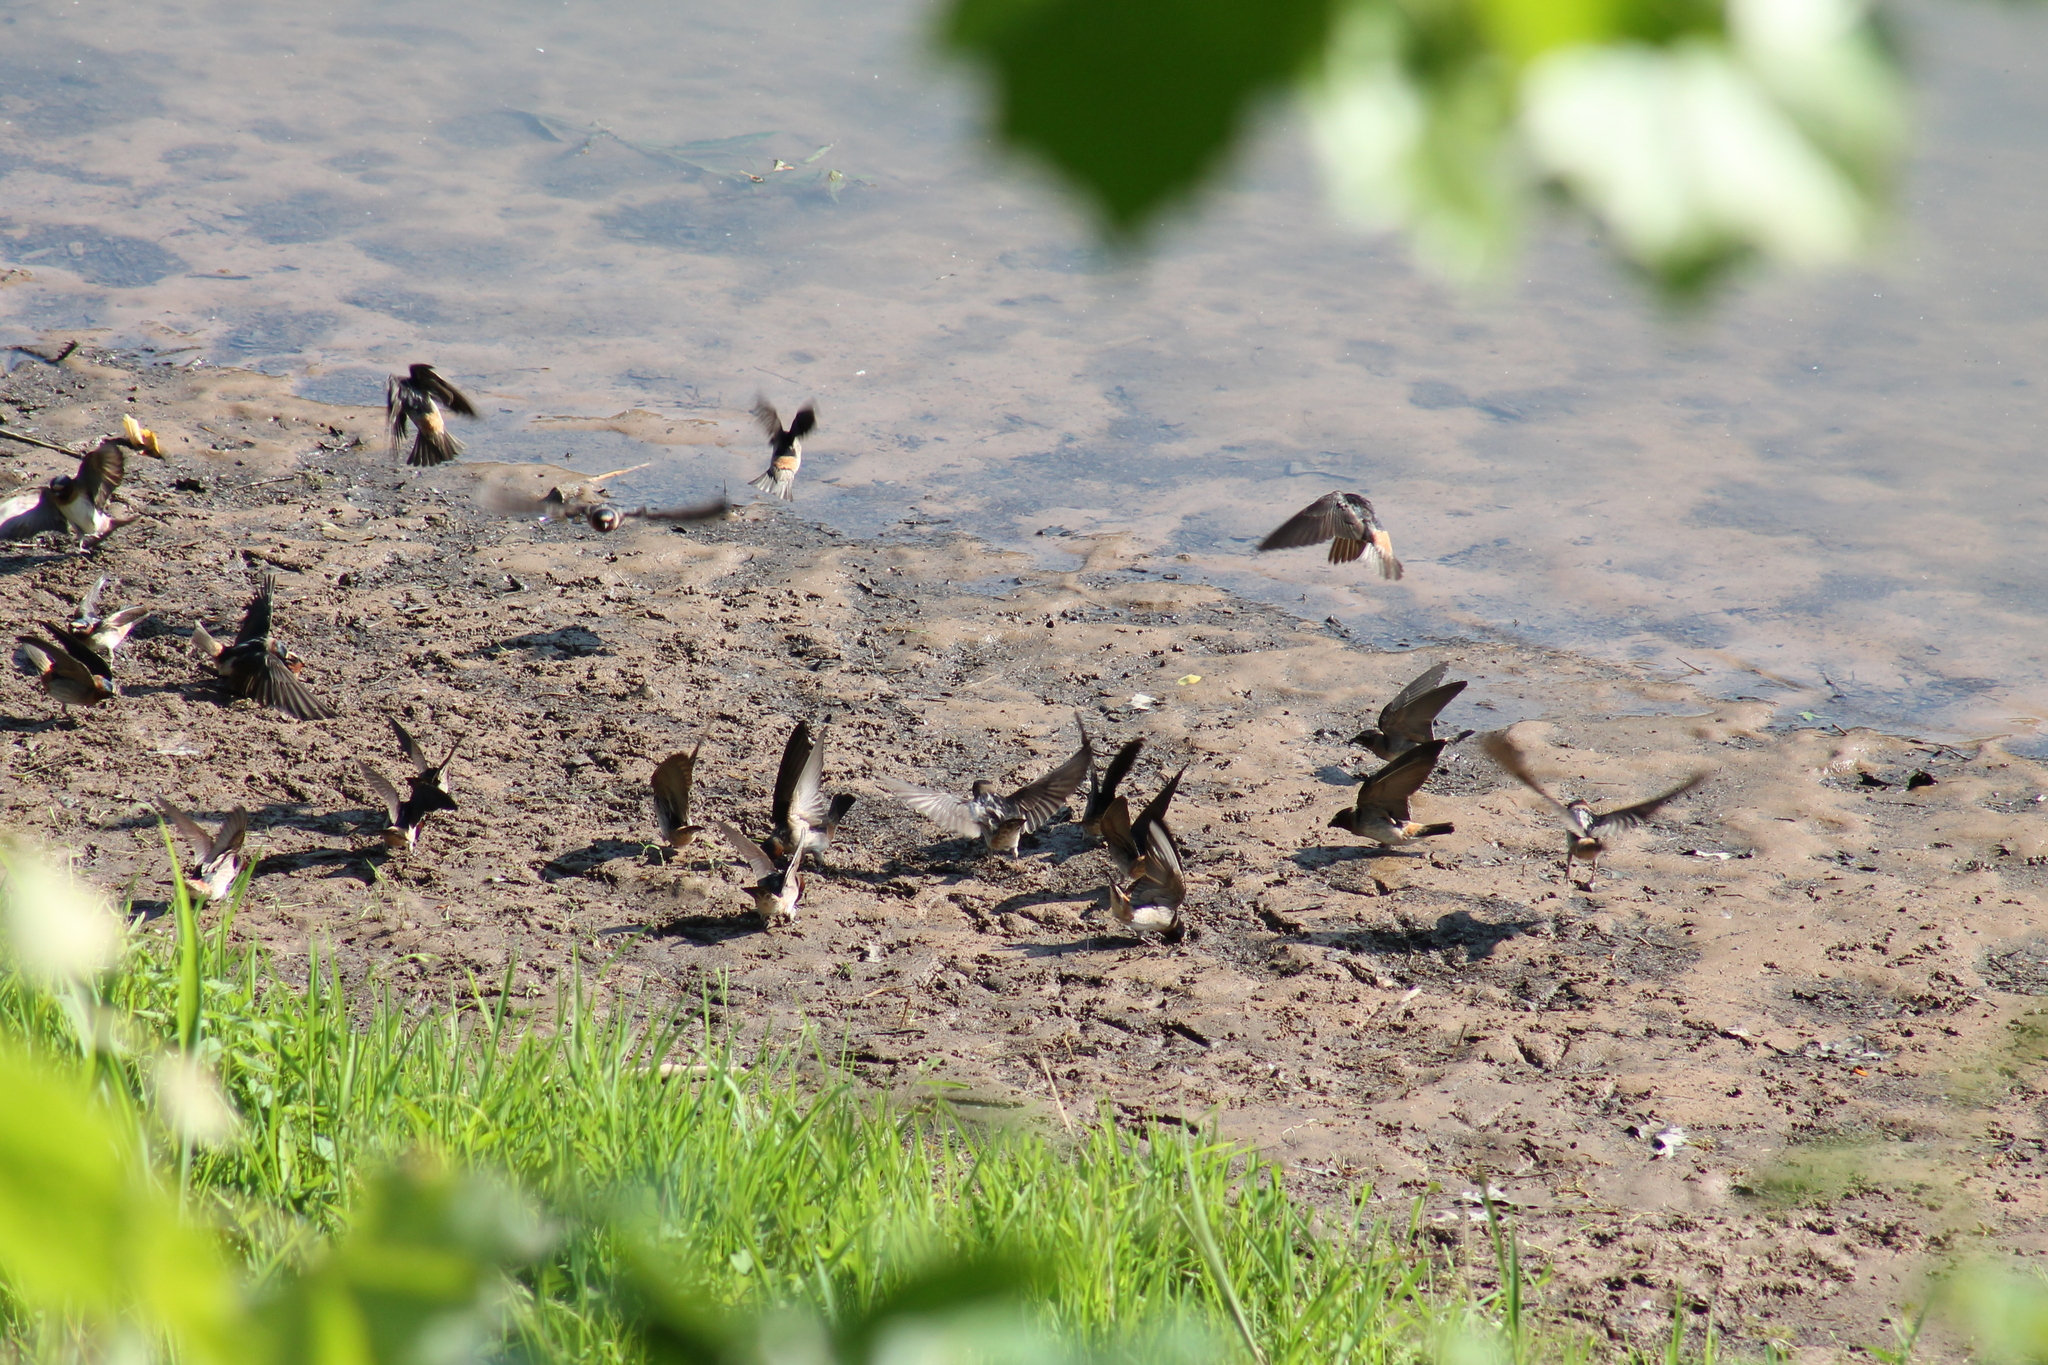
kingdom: Animalia
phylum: Chordata
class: Aves
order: Passeriformes
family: Hirundinidae
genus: Petrochelidon
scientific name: Petrochelidon pyrrhonota
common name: American cliff swallow
